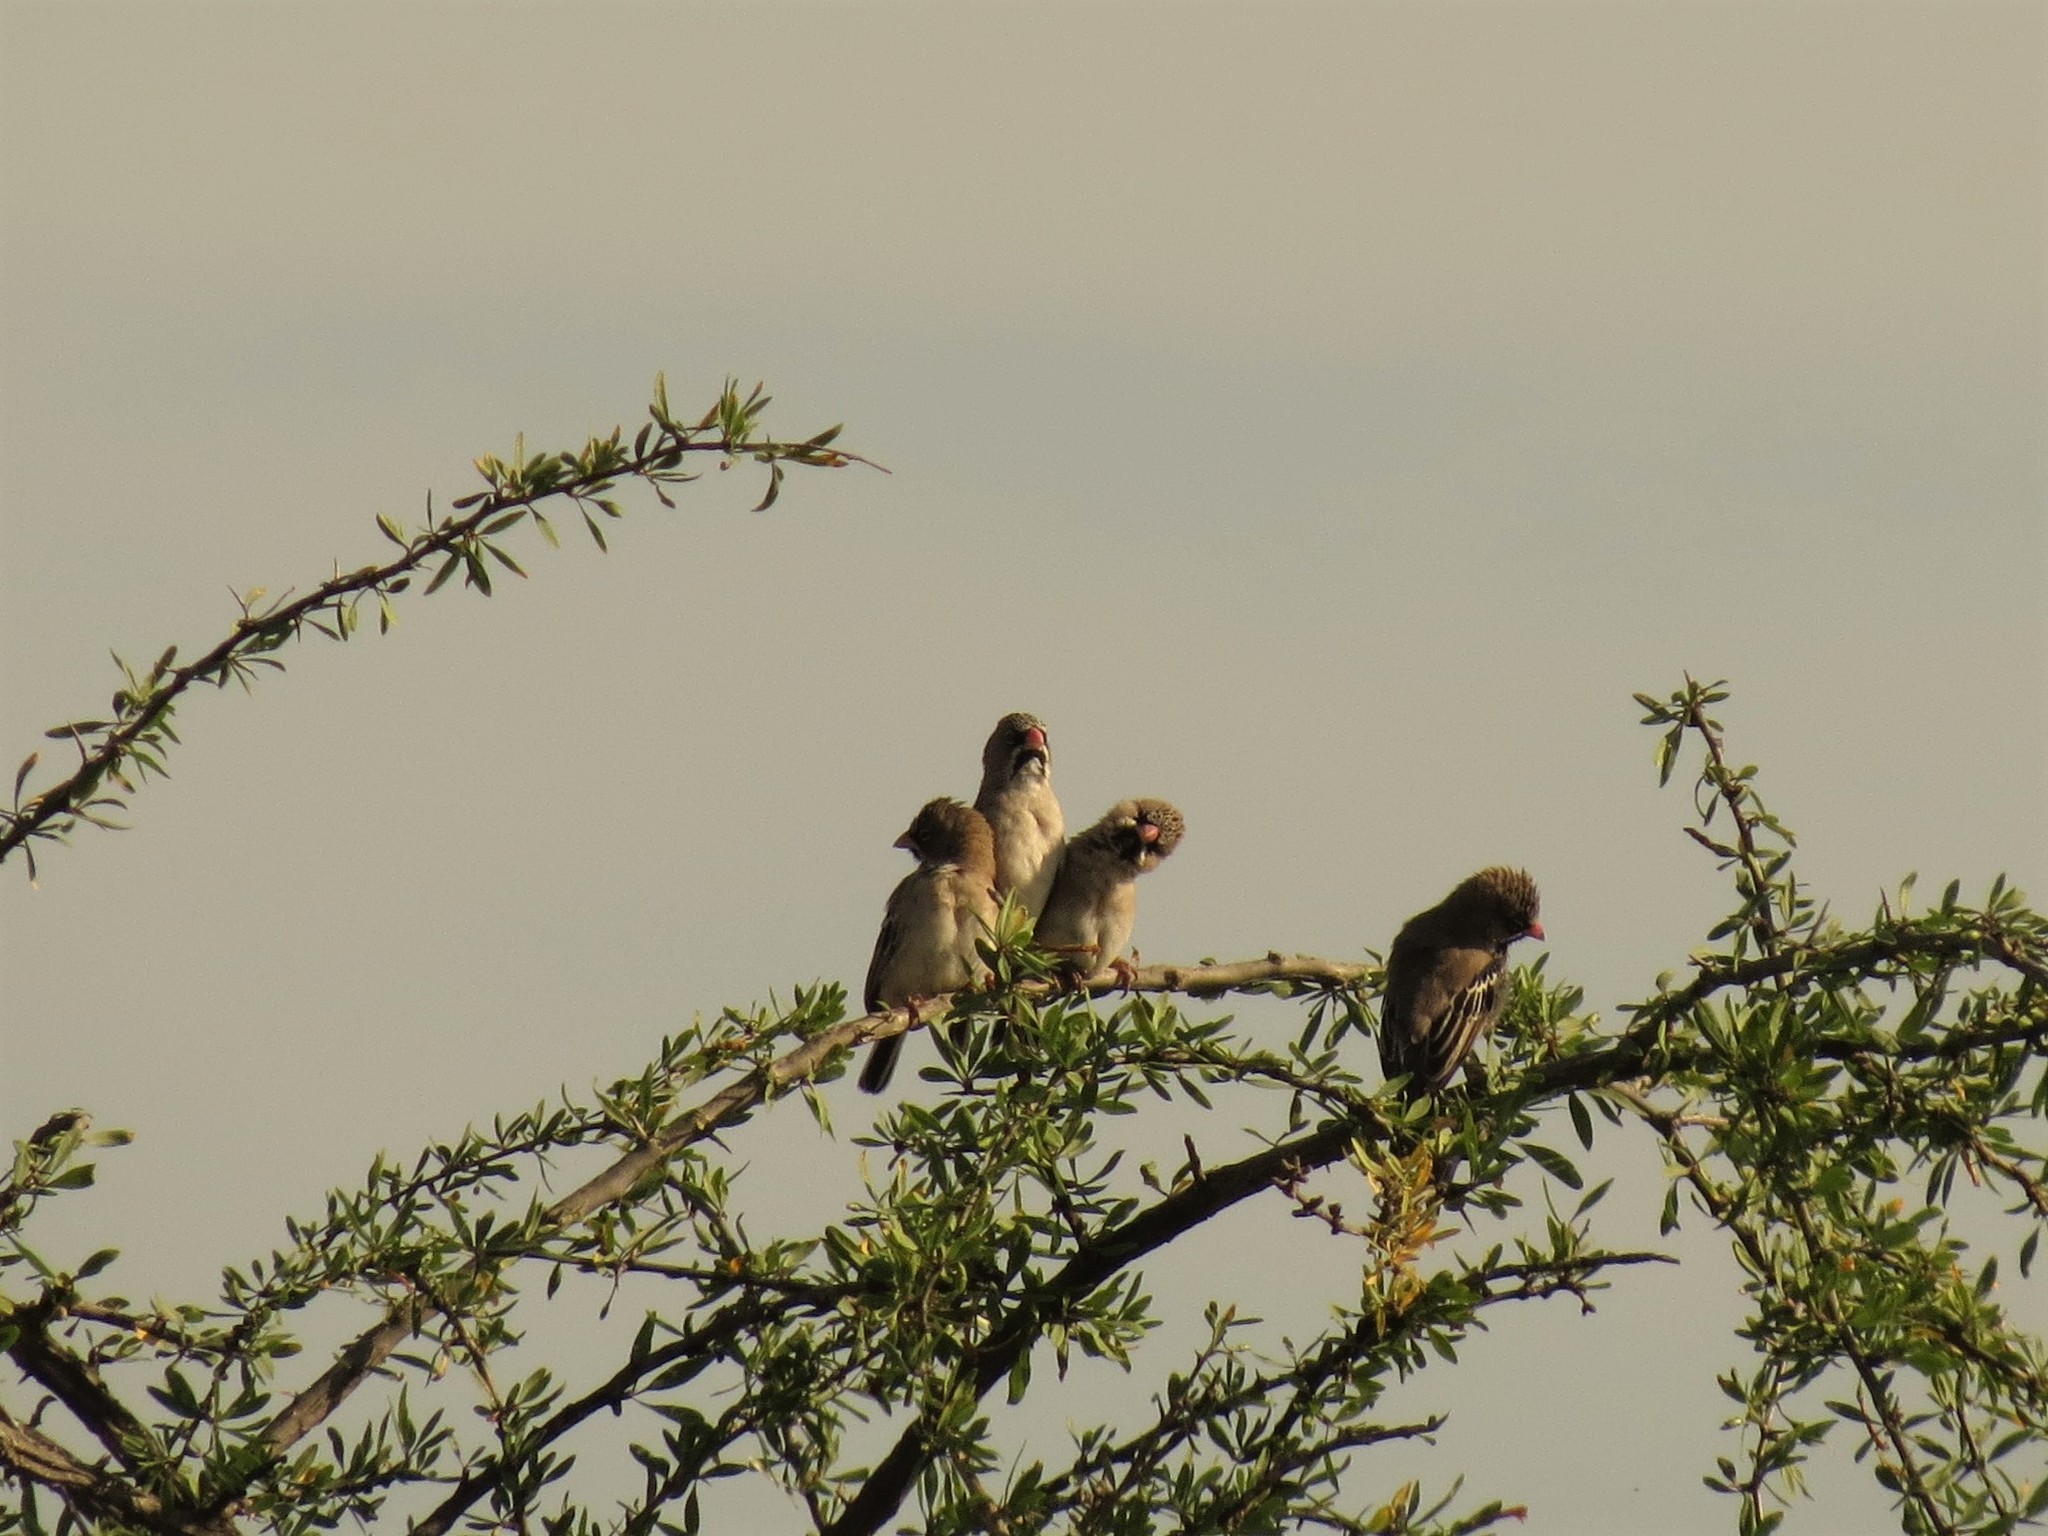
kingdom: Animalia
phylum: Chordata
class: Aves
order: Passeriformes
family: Ploceidae
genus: Sporopipes
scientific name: Sporopipes squamifrons
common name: Scaly-feathered weaver
